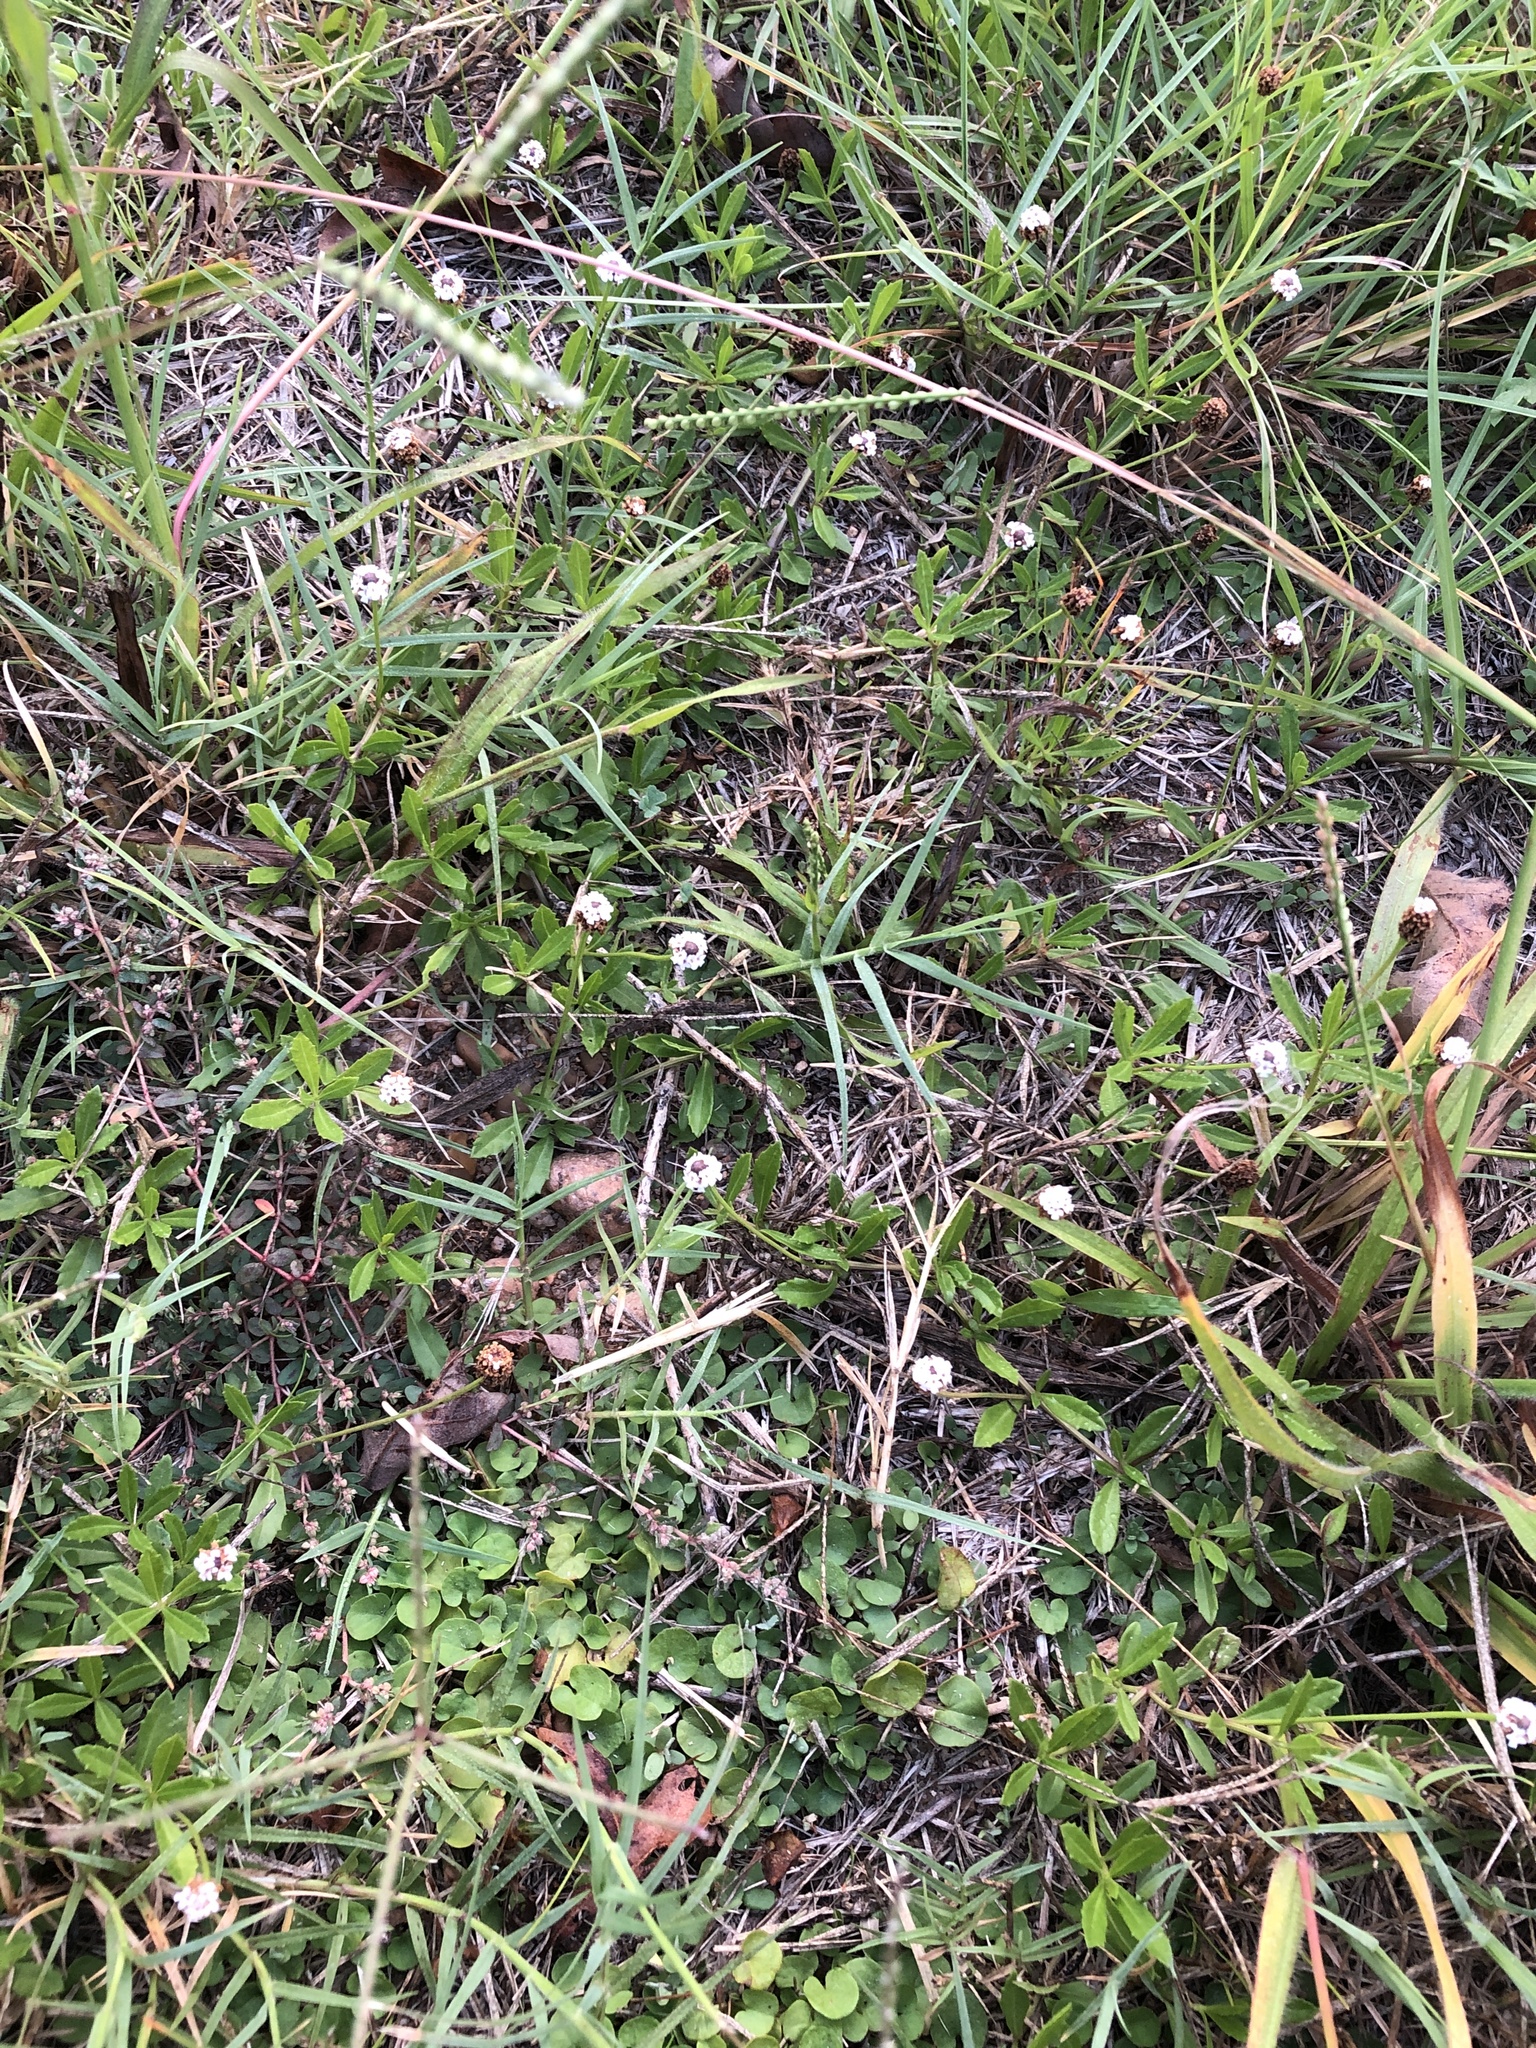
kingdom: Plantae
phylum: Tracheophyta
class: Magnoliopsida
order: Lamiales
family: Verbenaceae
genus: Phyla
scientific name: Phyla nodiflora
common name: Frogfruit
